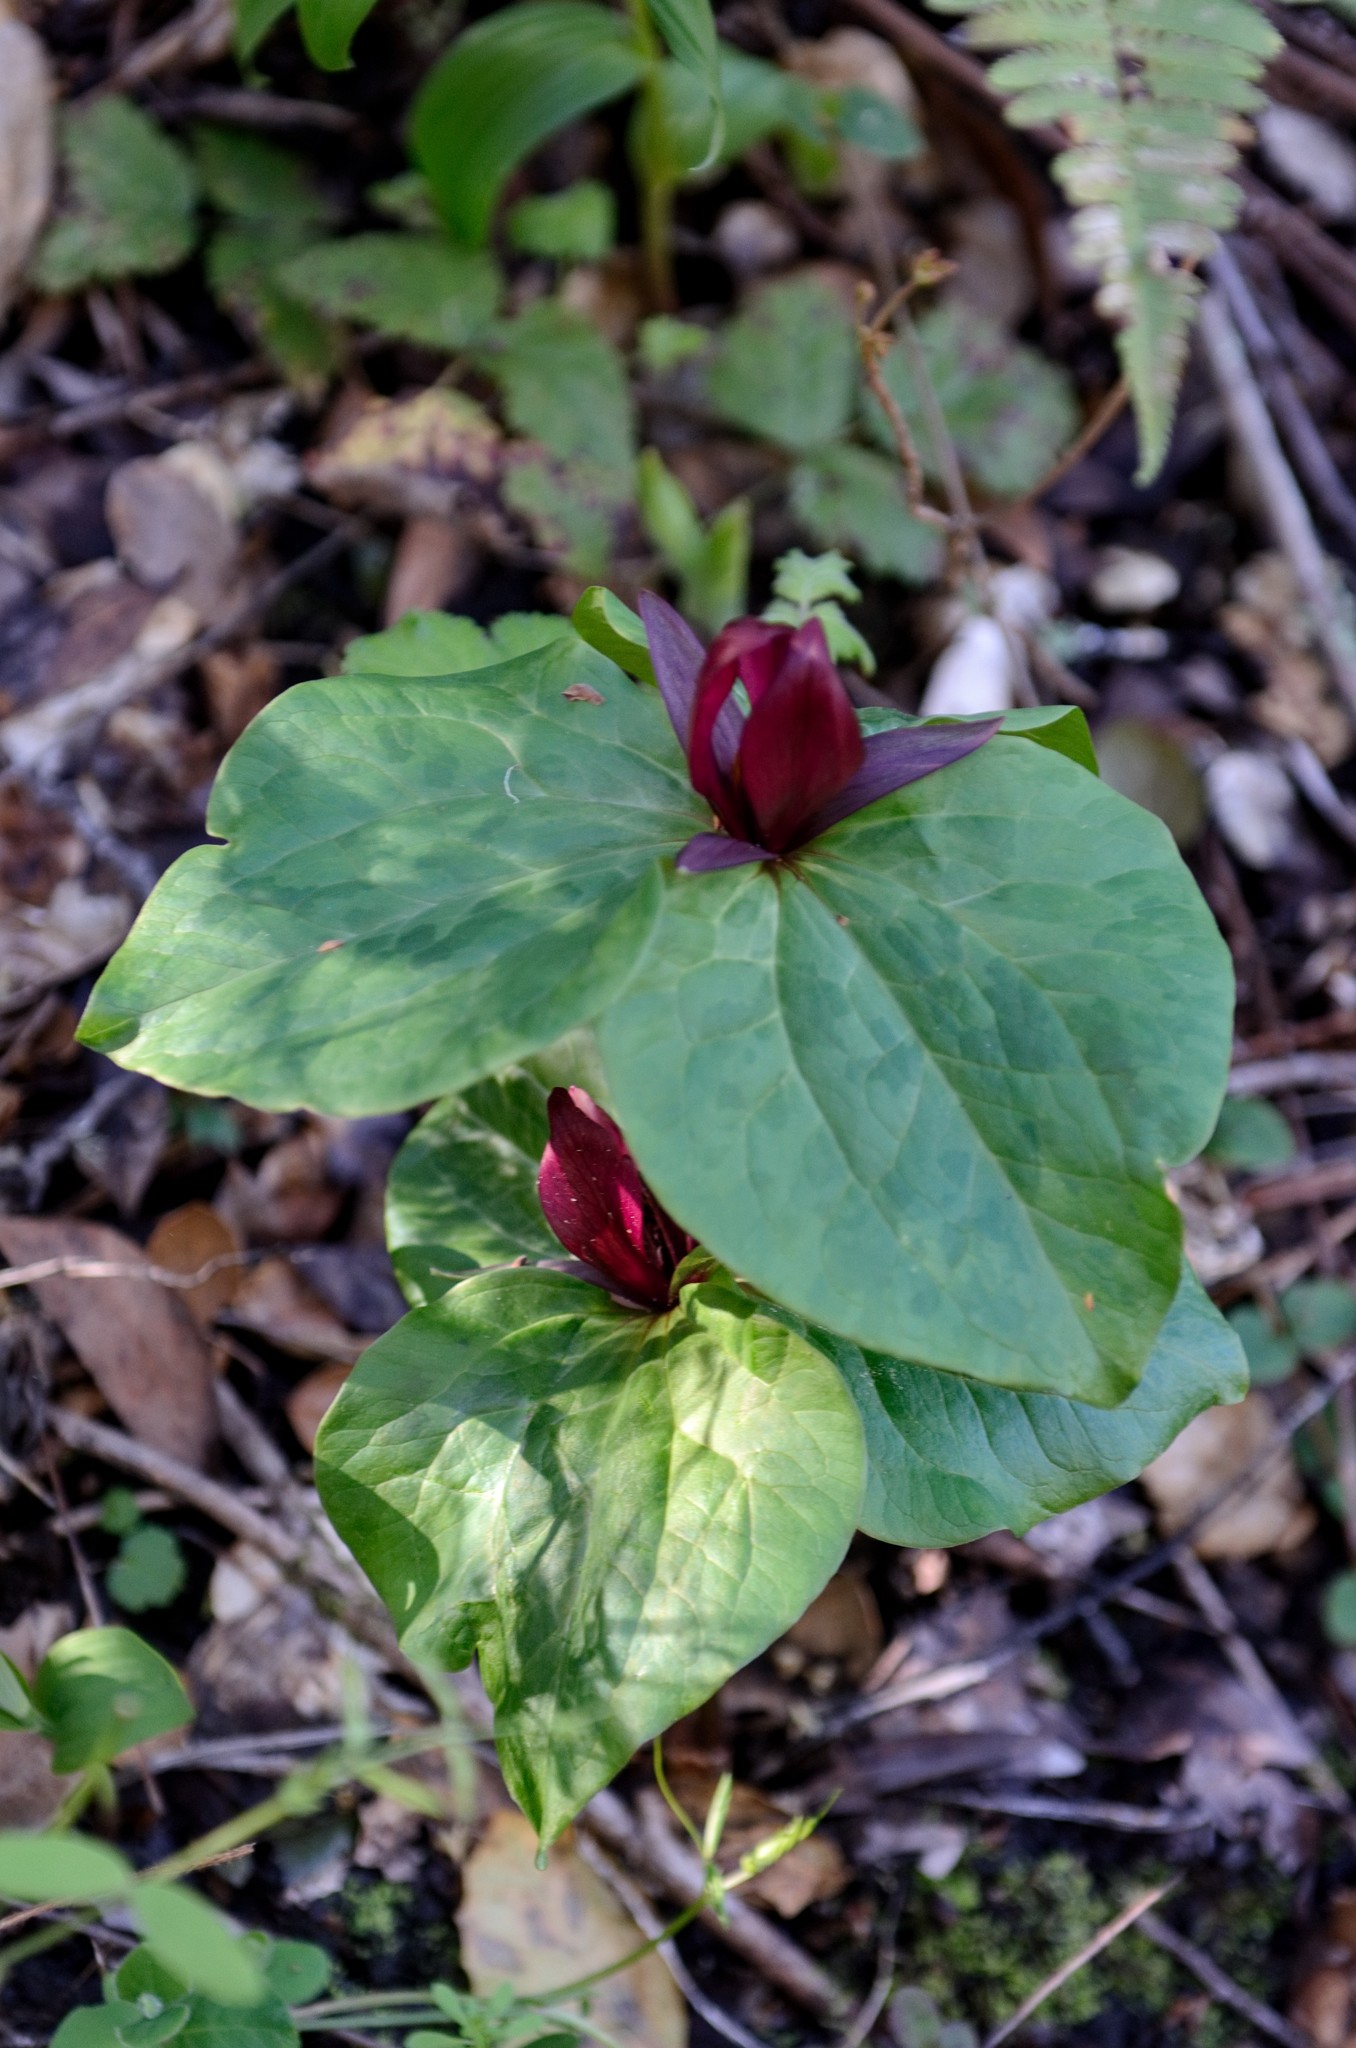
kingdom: Plantae
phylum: Tracheophyta
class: Liliopsida
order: Liliales
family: Melanthiaceae
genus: Trillium
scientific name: Trillium chloropetalum
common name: Giant trillium
